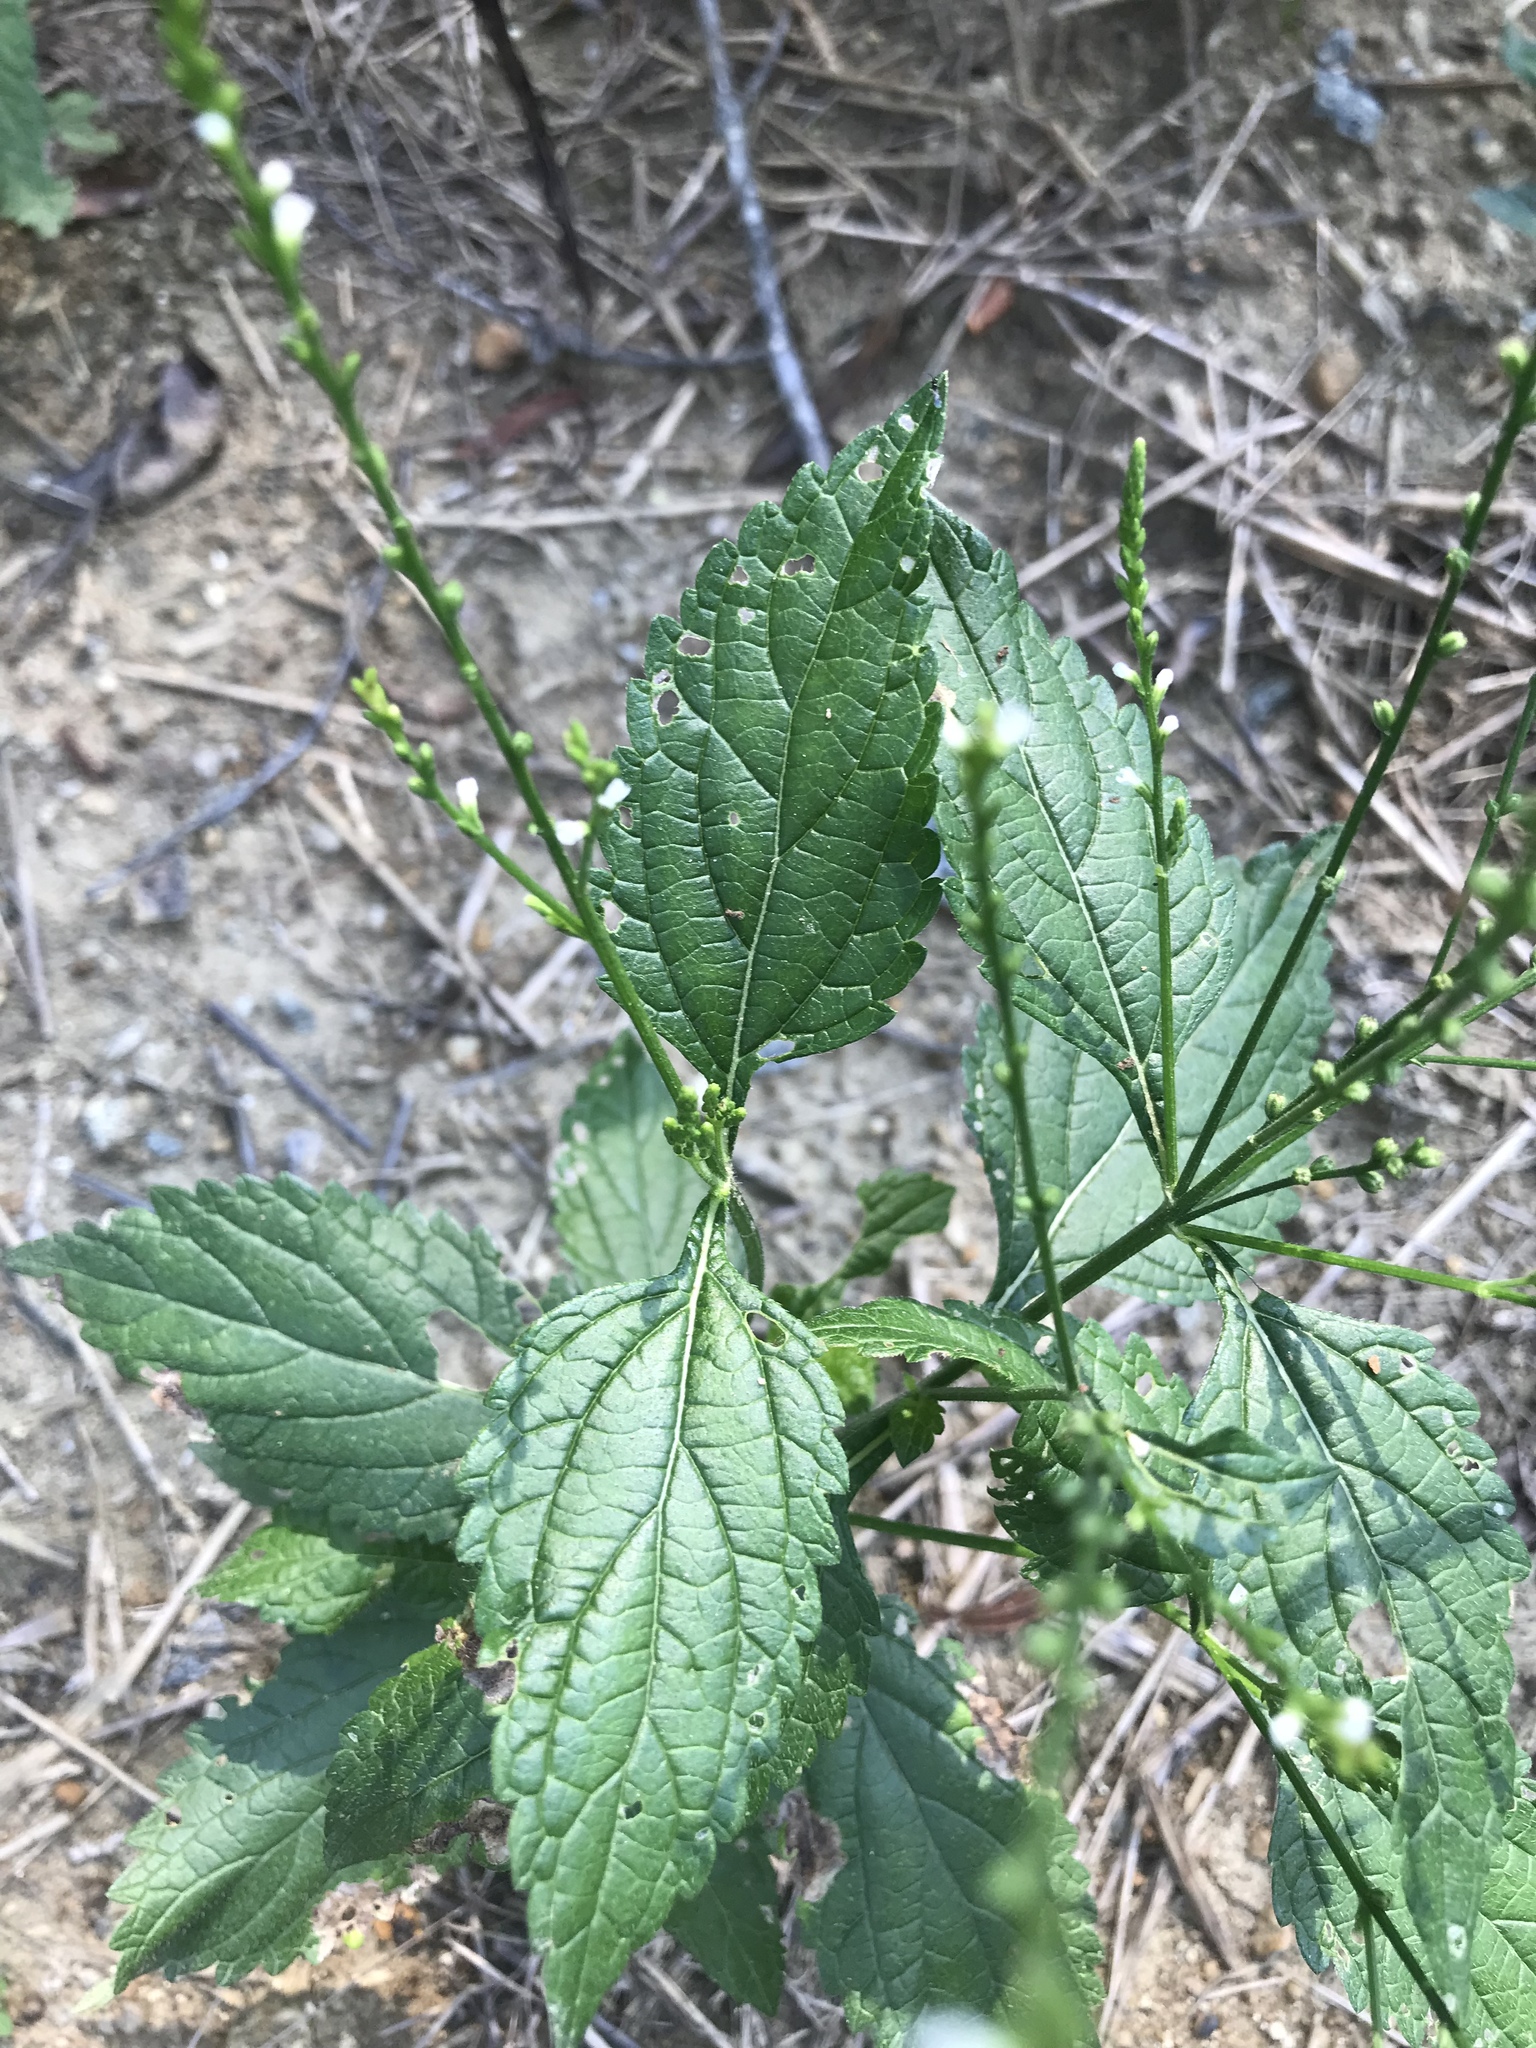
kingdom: Plantae
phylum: Tracheophyta
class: Magnoliopsida
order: Lamiales
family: Verbenaceae
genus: Verbena
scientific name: Verbena urticifolia
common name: Nettle-leaved vervain
